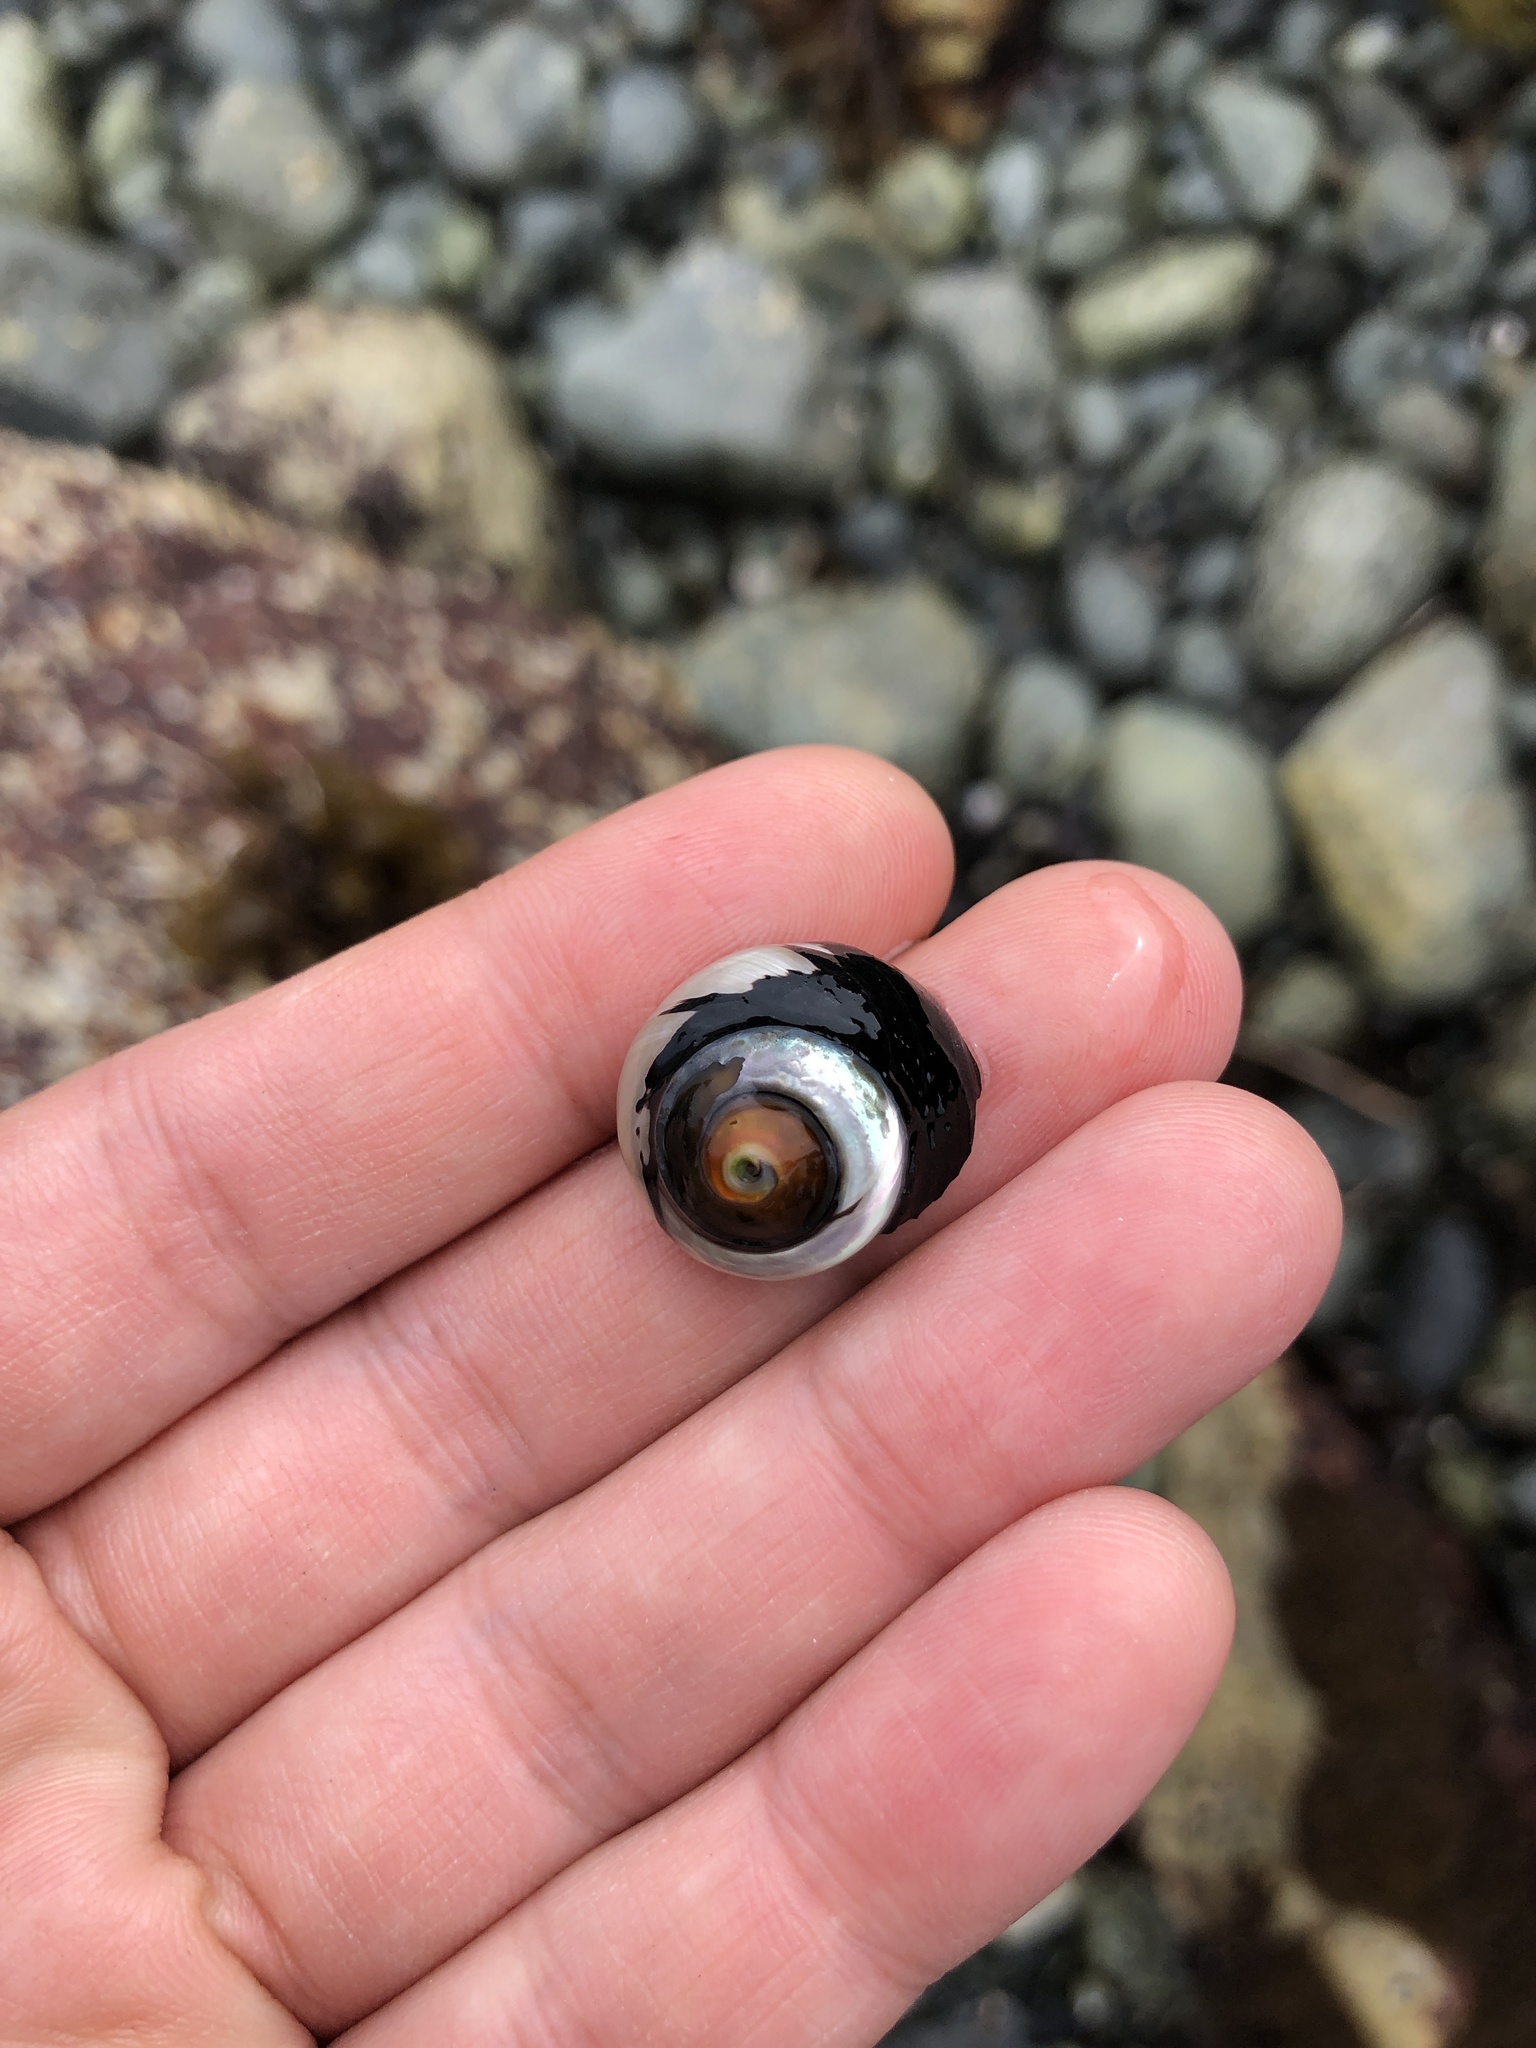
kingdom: Animalia
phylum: Mollusca
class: Gastropoda
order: Trochida
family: Tegulidae
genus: Tegula
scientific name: Tegula funebralis
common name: Black tegula
